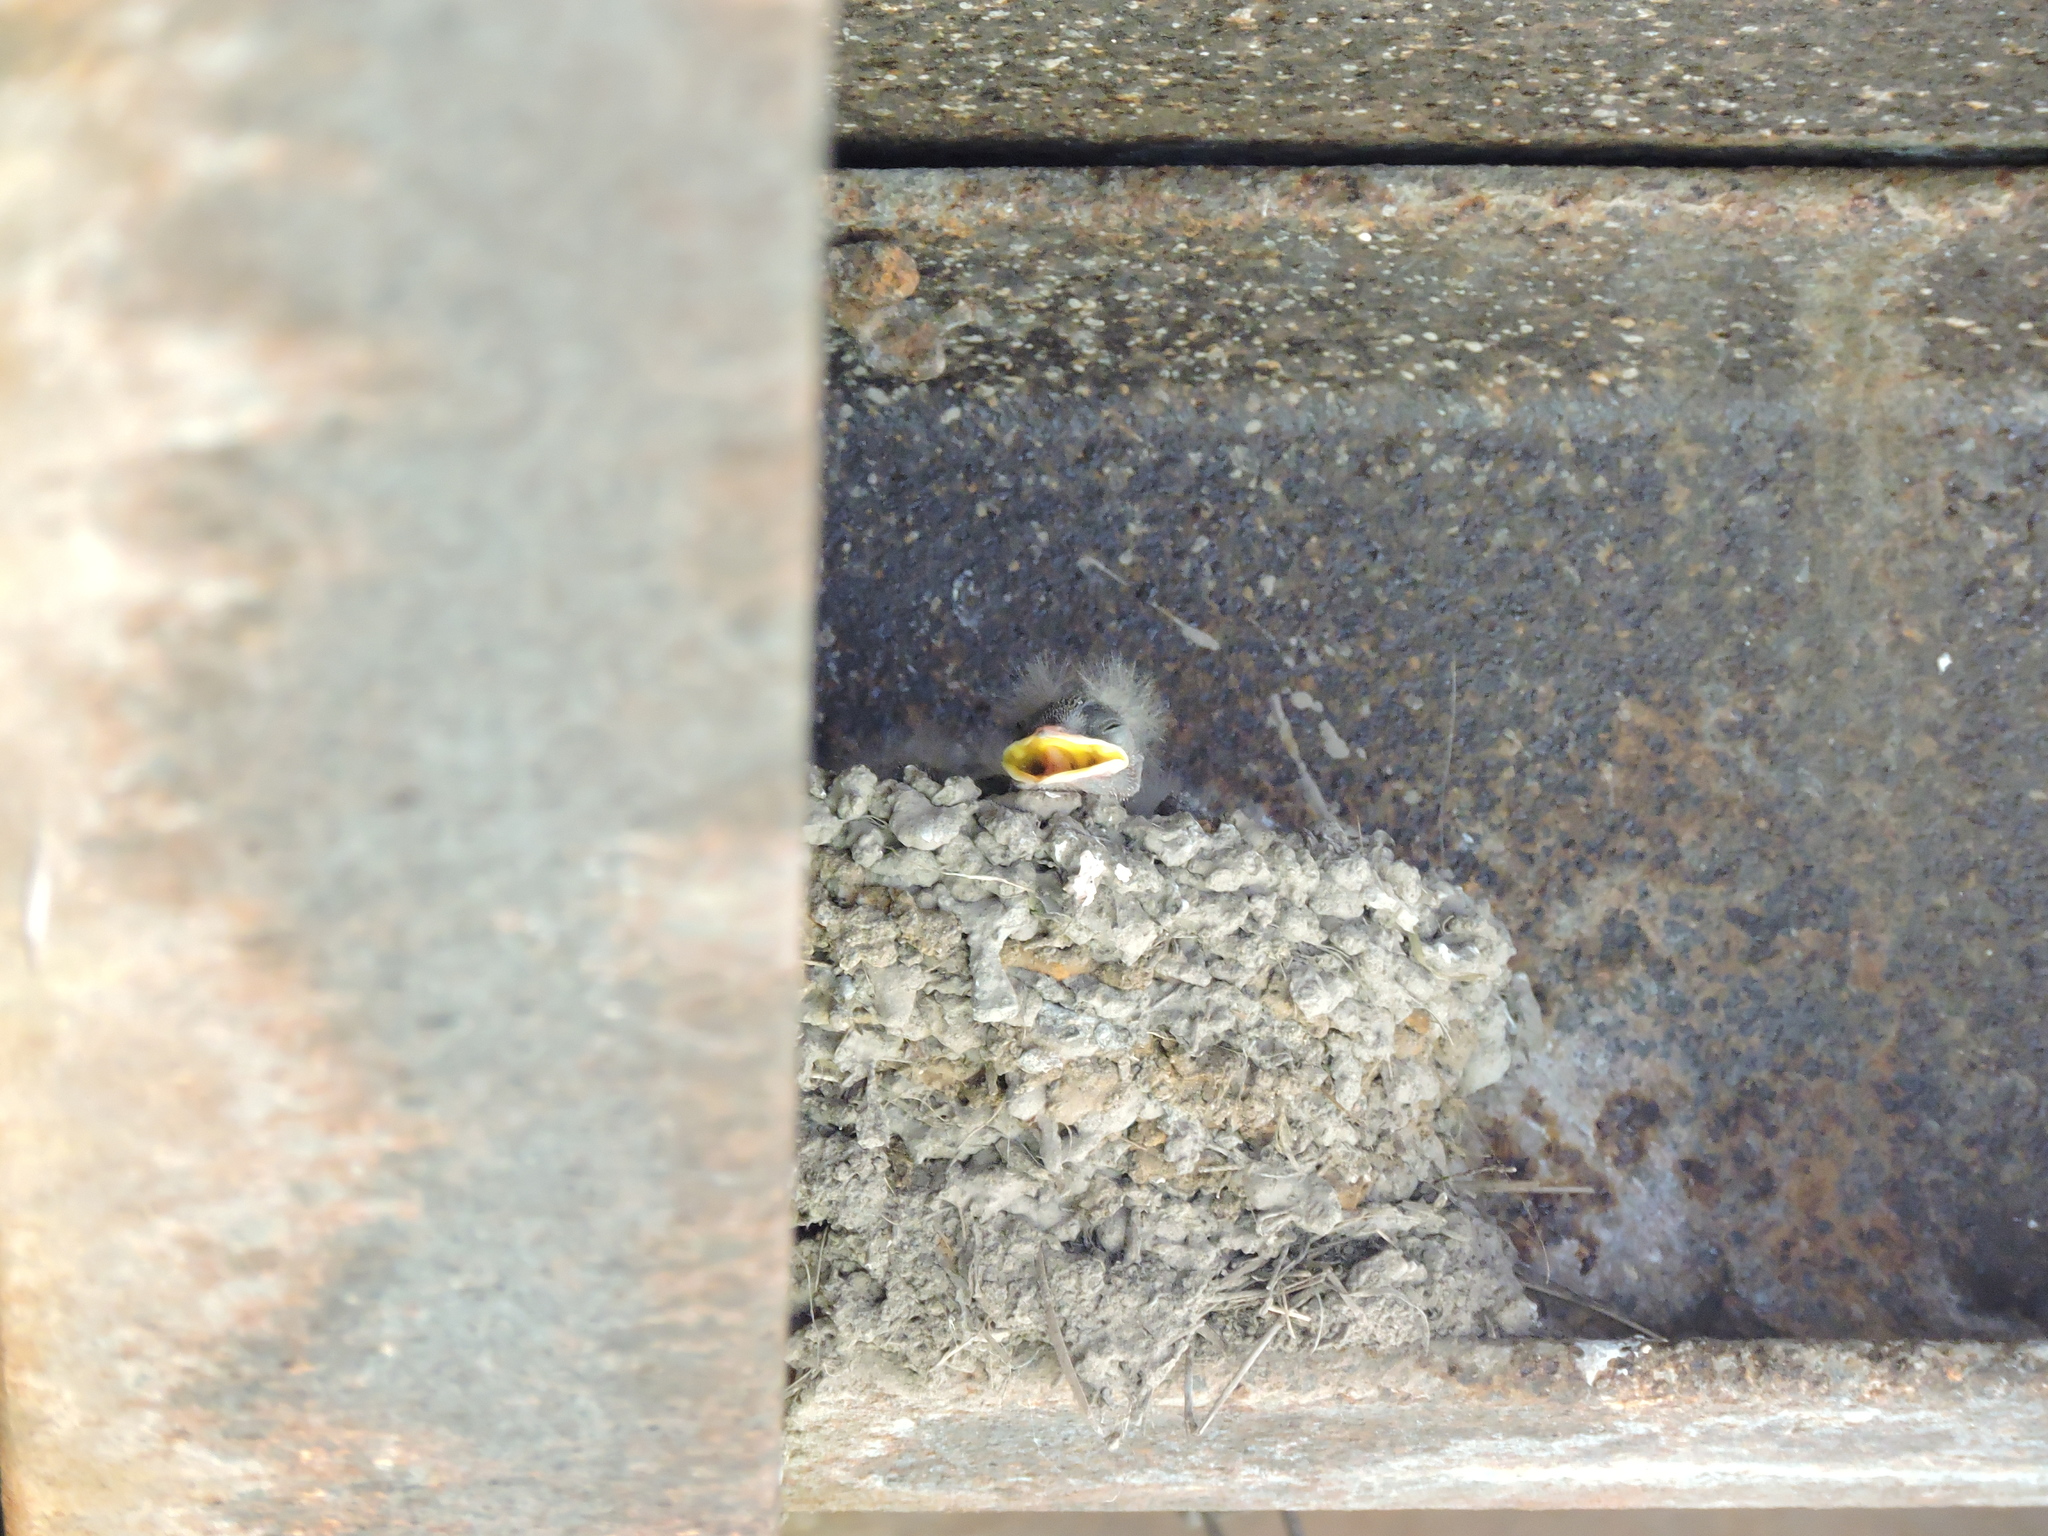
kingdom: Animalia
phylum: Chordata
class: Aves
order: Passeriformes
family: Hirundinidae
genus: Ptyonoprogne
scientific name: Ptyonoprogne rupestris
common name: Eurasian crag martin
